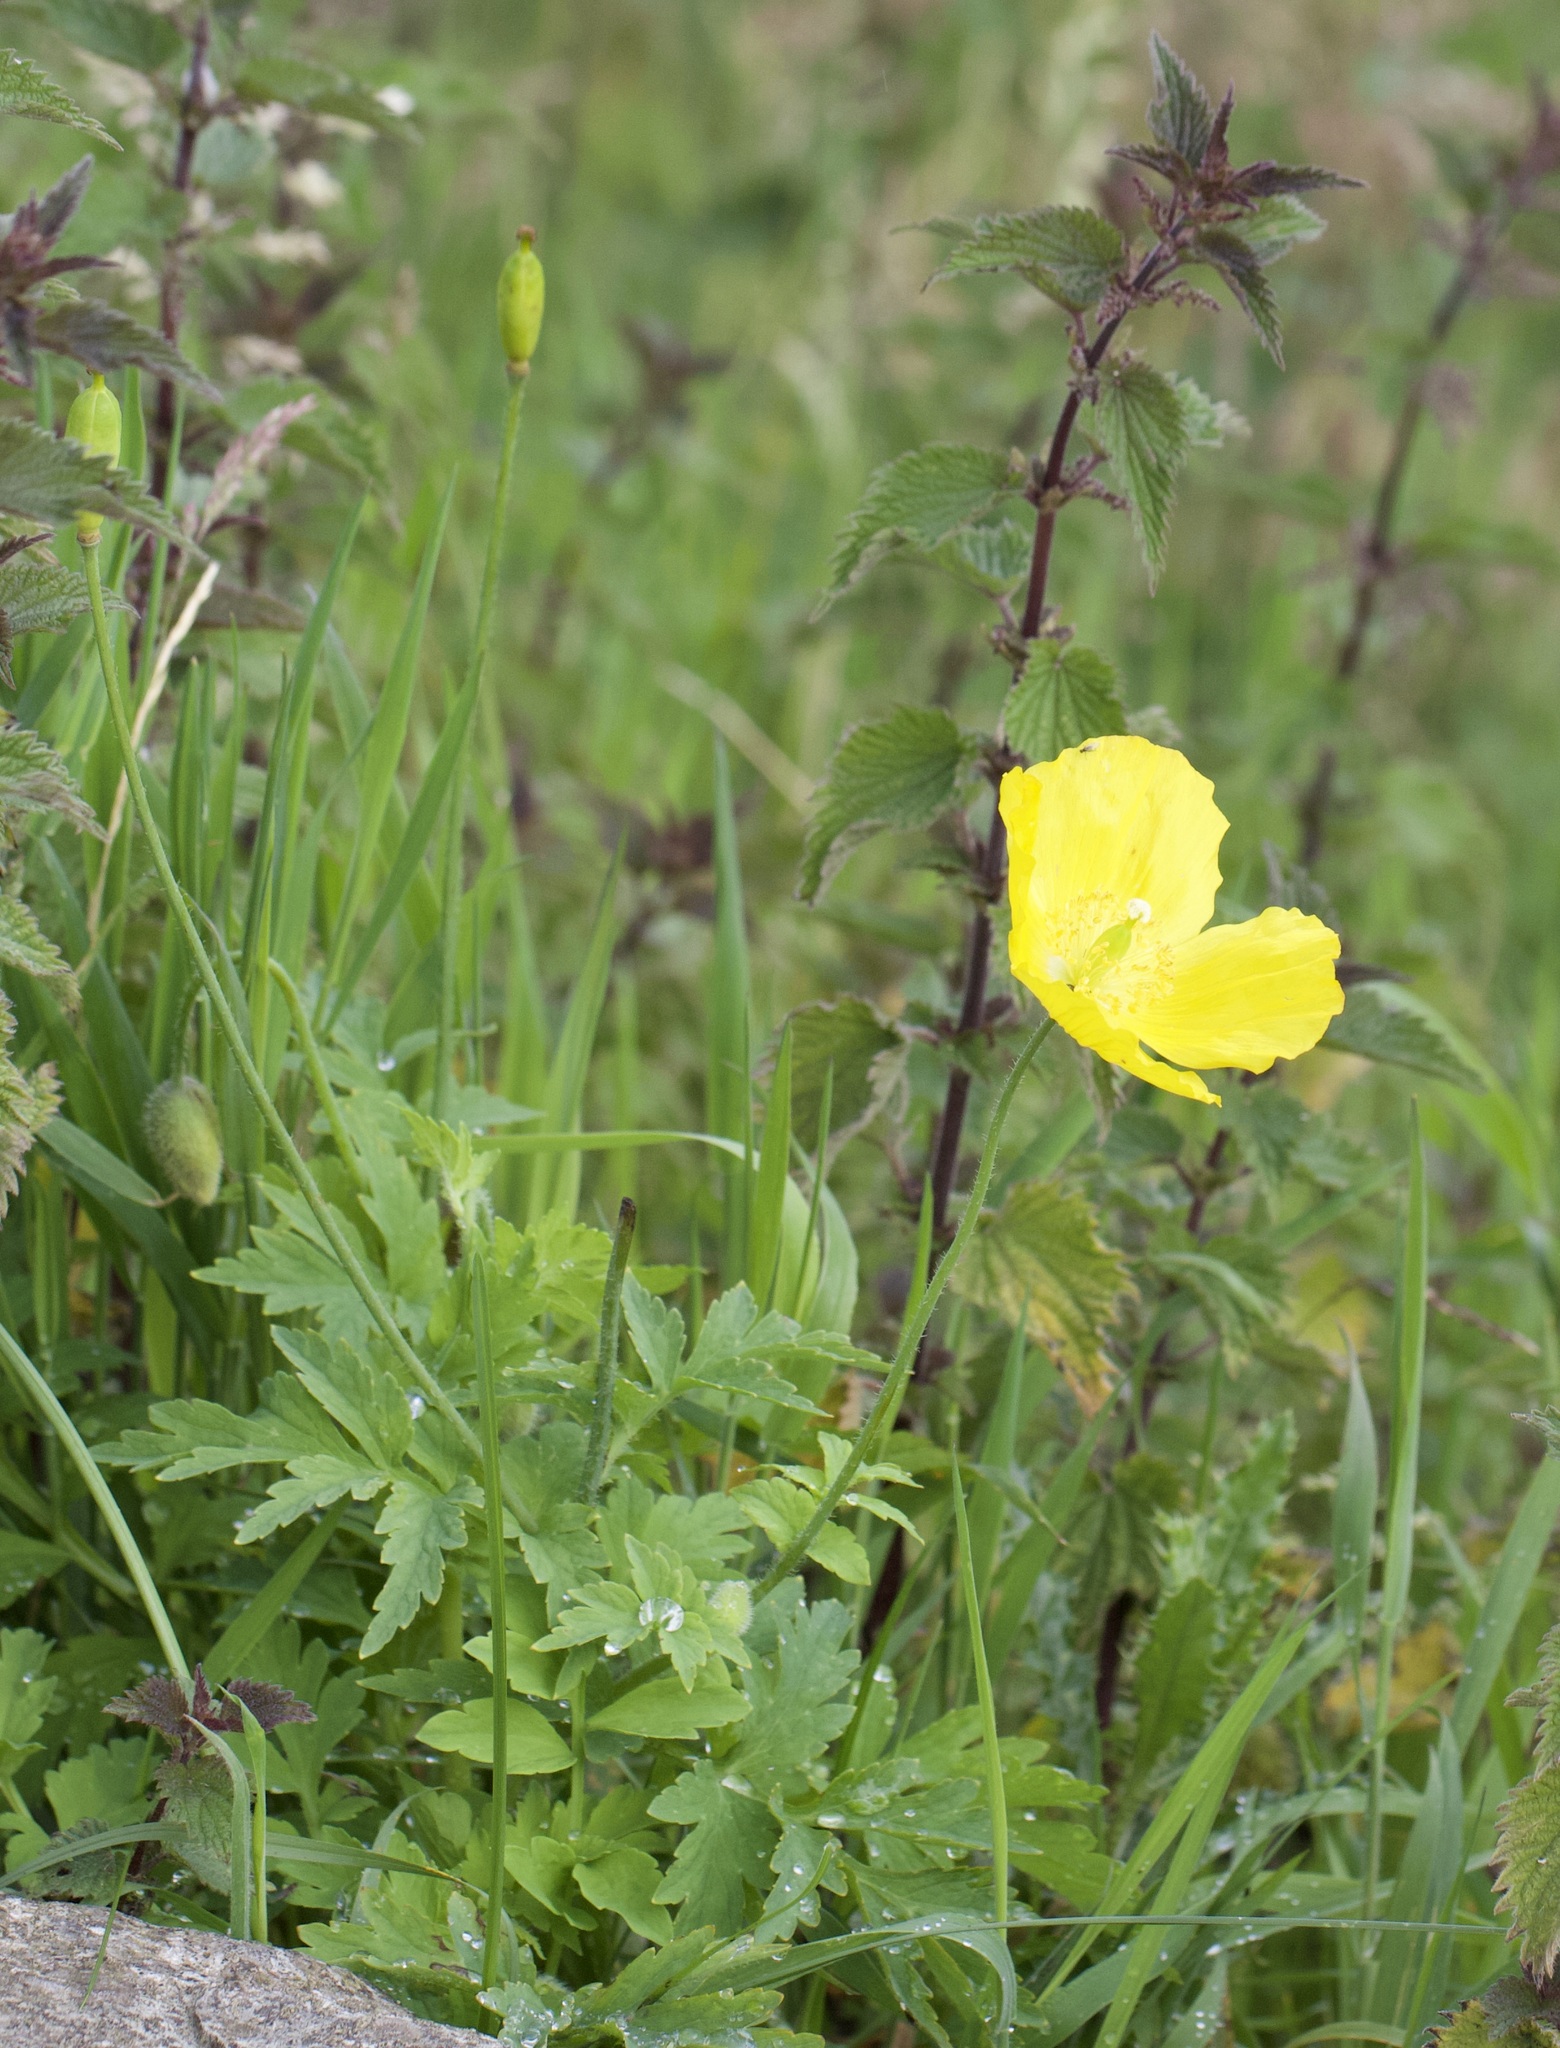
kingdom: Plantae
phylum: Tracheophyta
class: Magnoliopsida
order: Ranunculales
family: Papaveraceae
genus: Papaver
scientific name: Papaver cambricum
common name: Poppy
